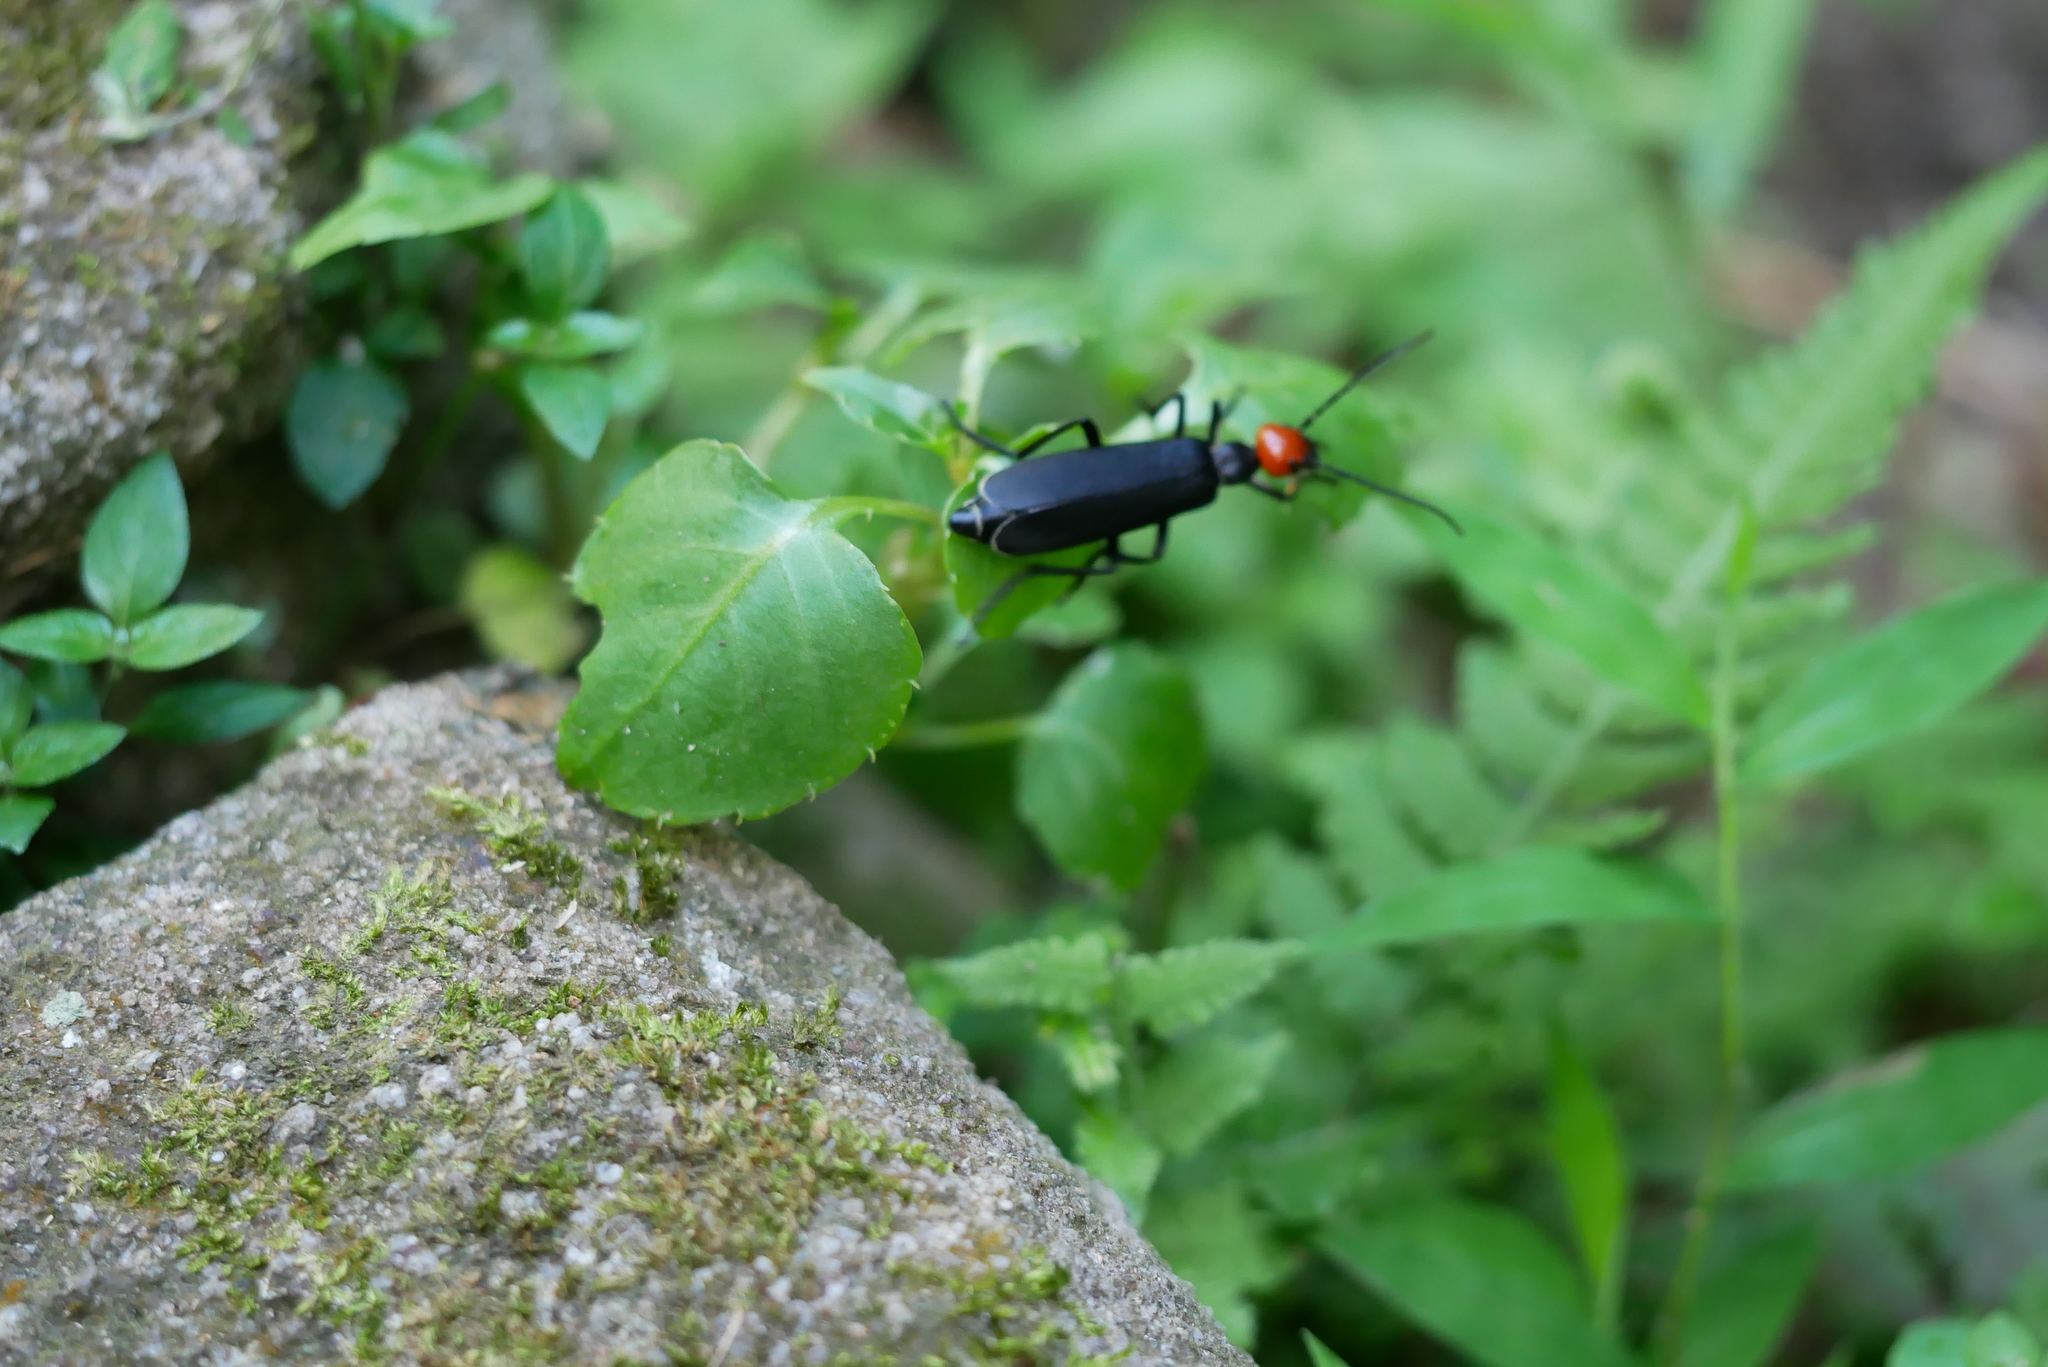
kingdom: Animalia
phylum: Arthropoda
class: Insecta
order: Coleoptera
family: Meloidae
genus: Epicauta
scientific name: Epicauta hirticornis
